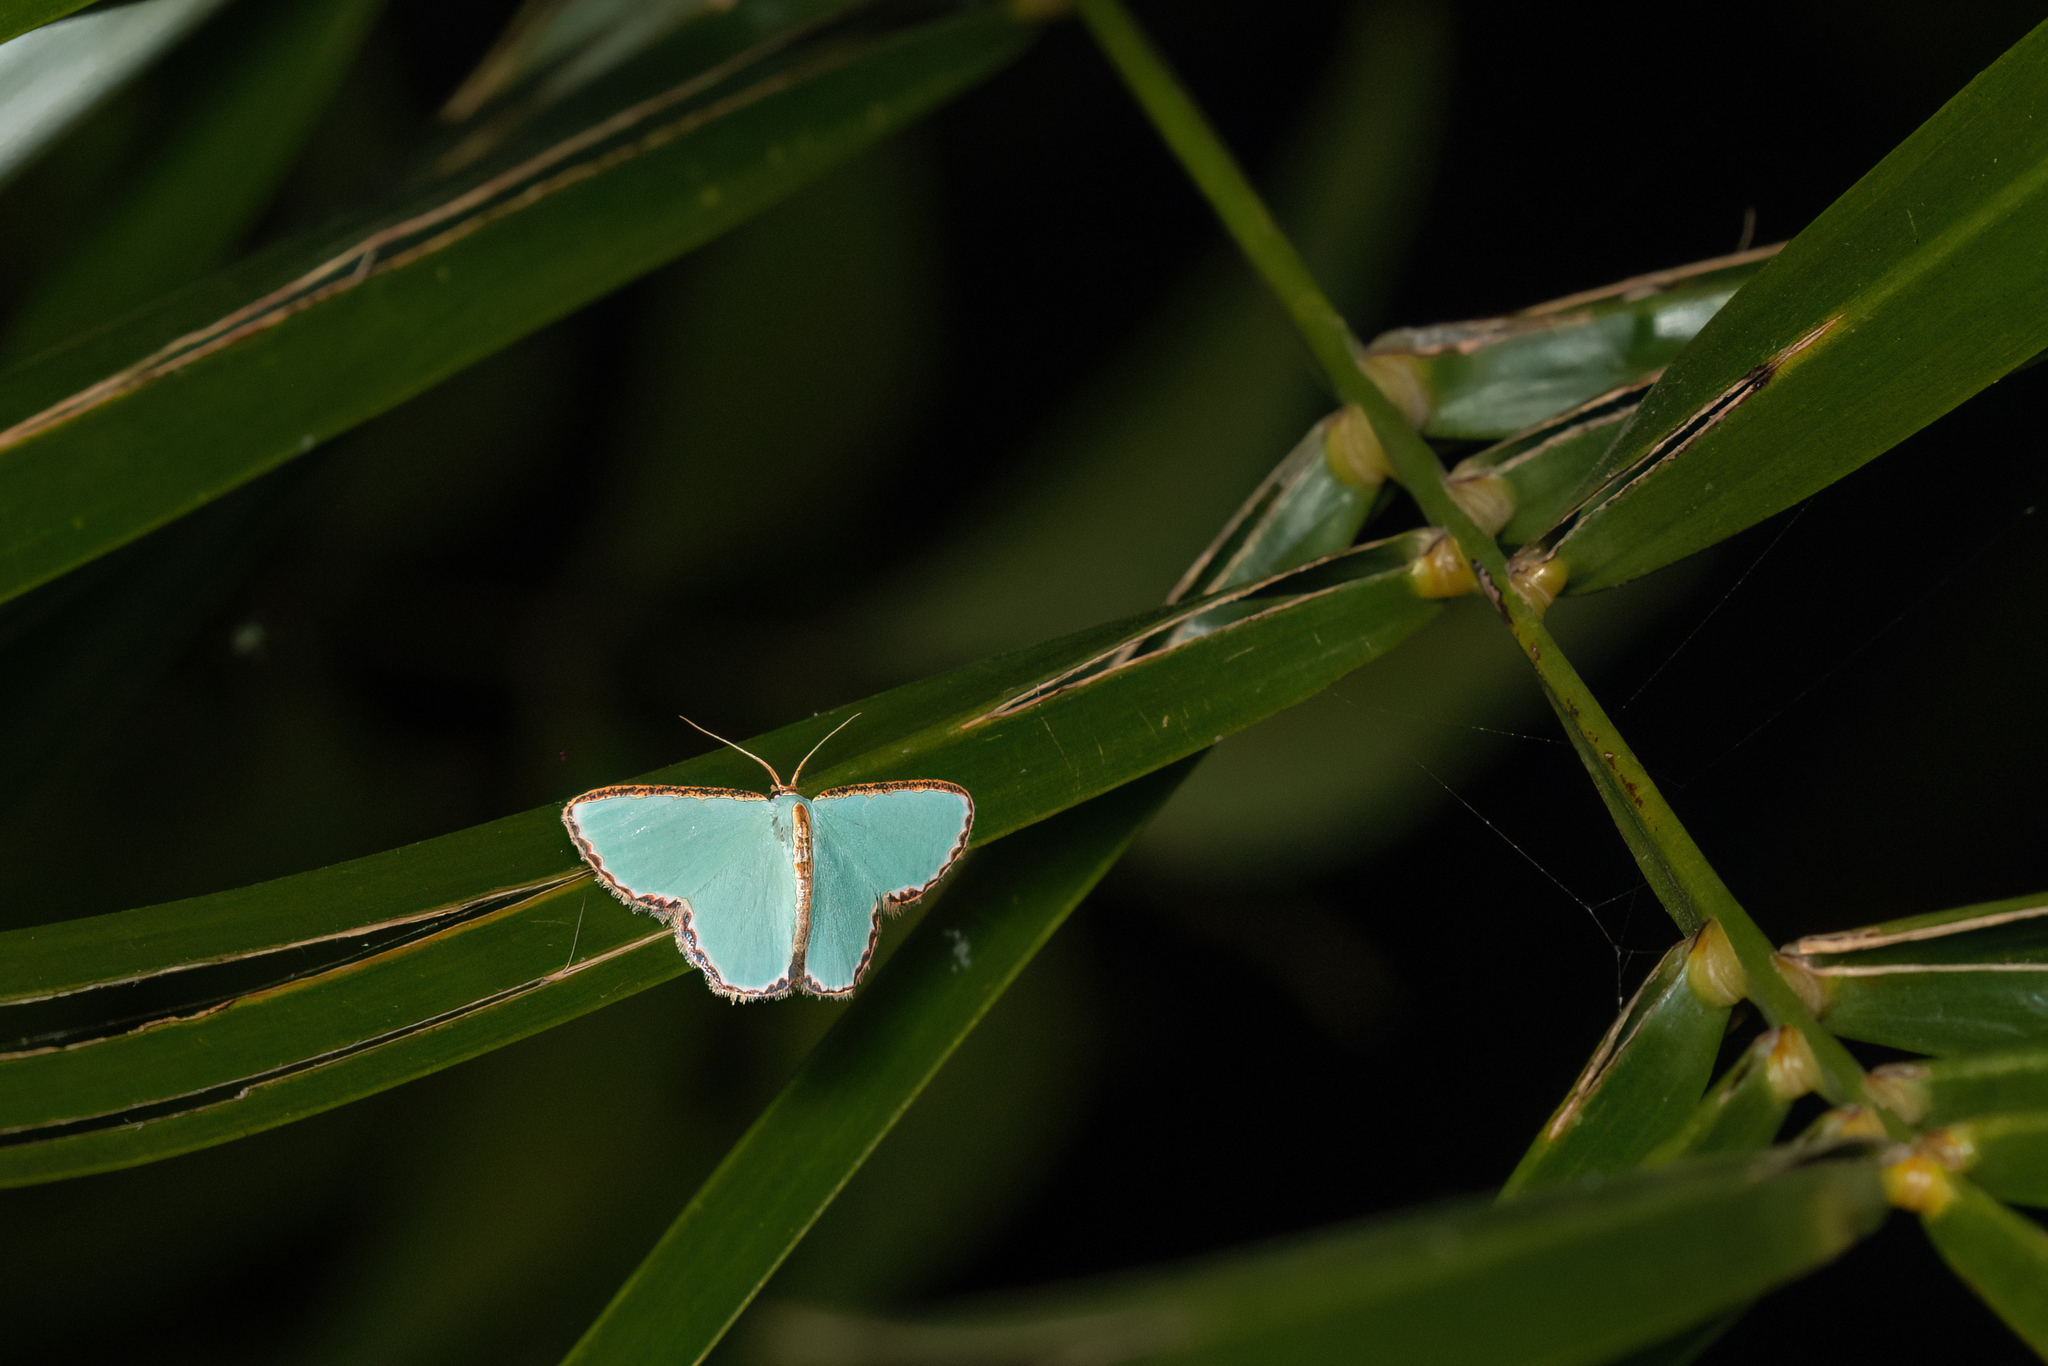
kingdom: Animalia
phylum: Arthropoda
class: Insecta
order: Lepidoptera
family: Geometridae
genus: Comostola
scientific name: Comostola pyrrhogona
